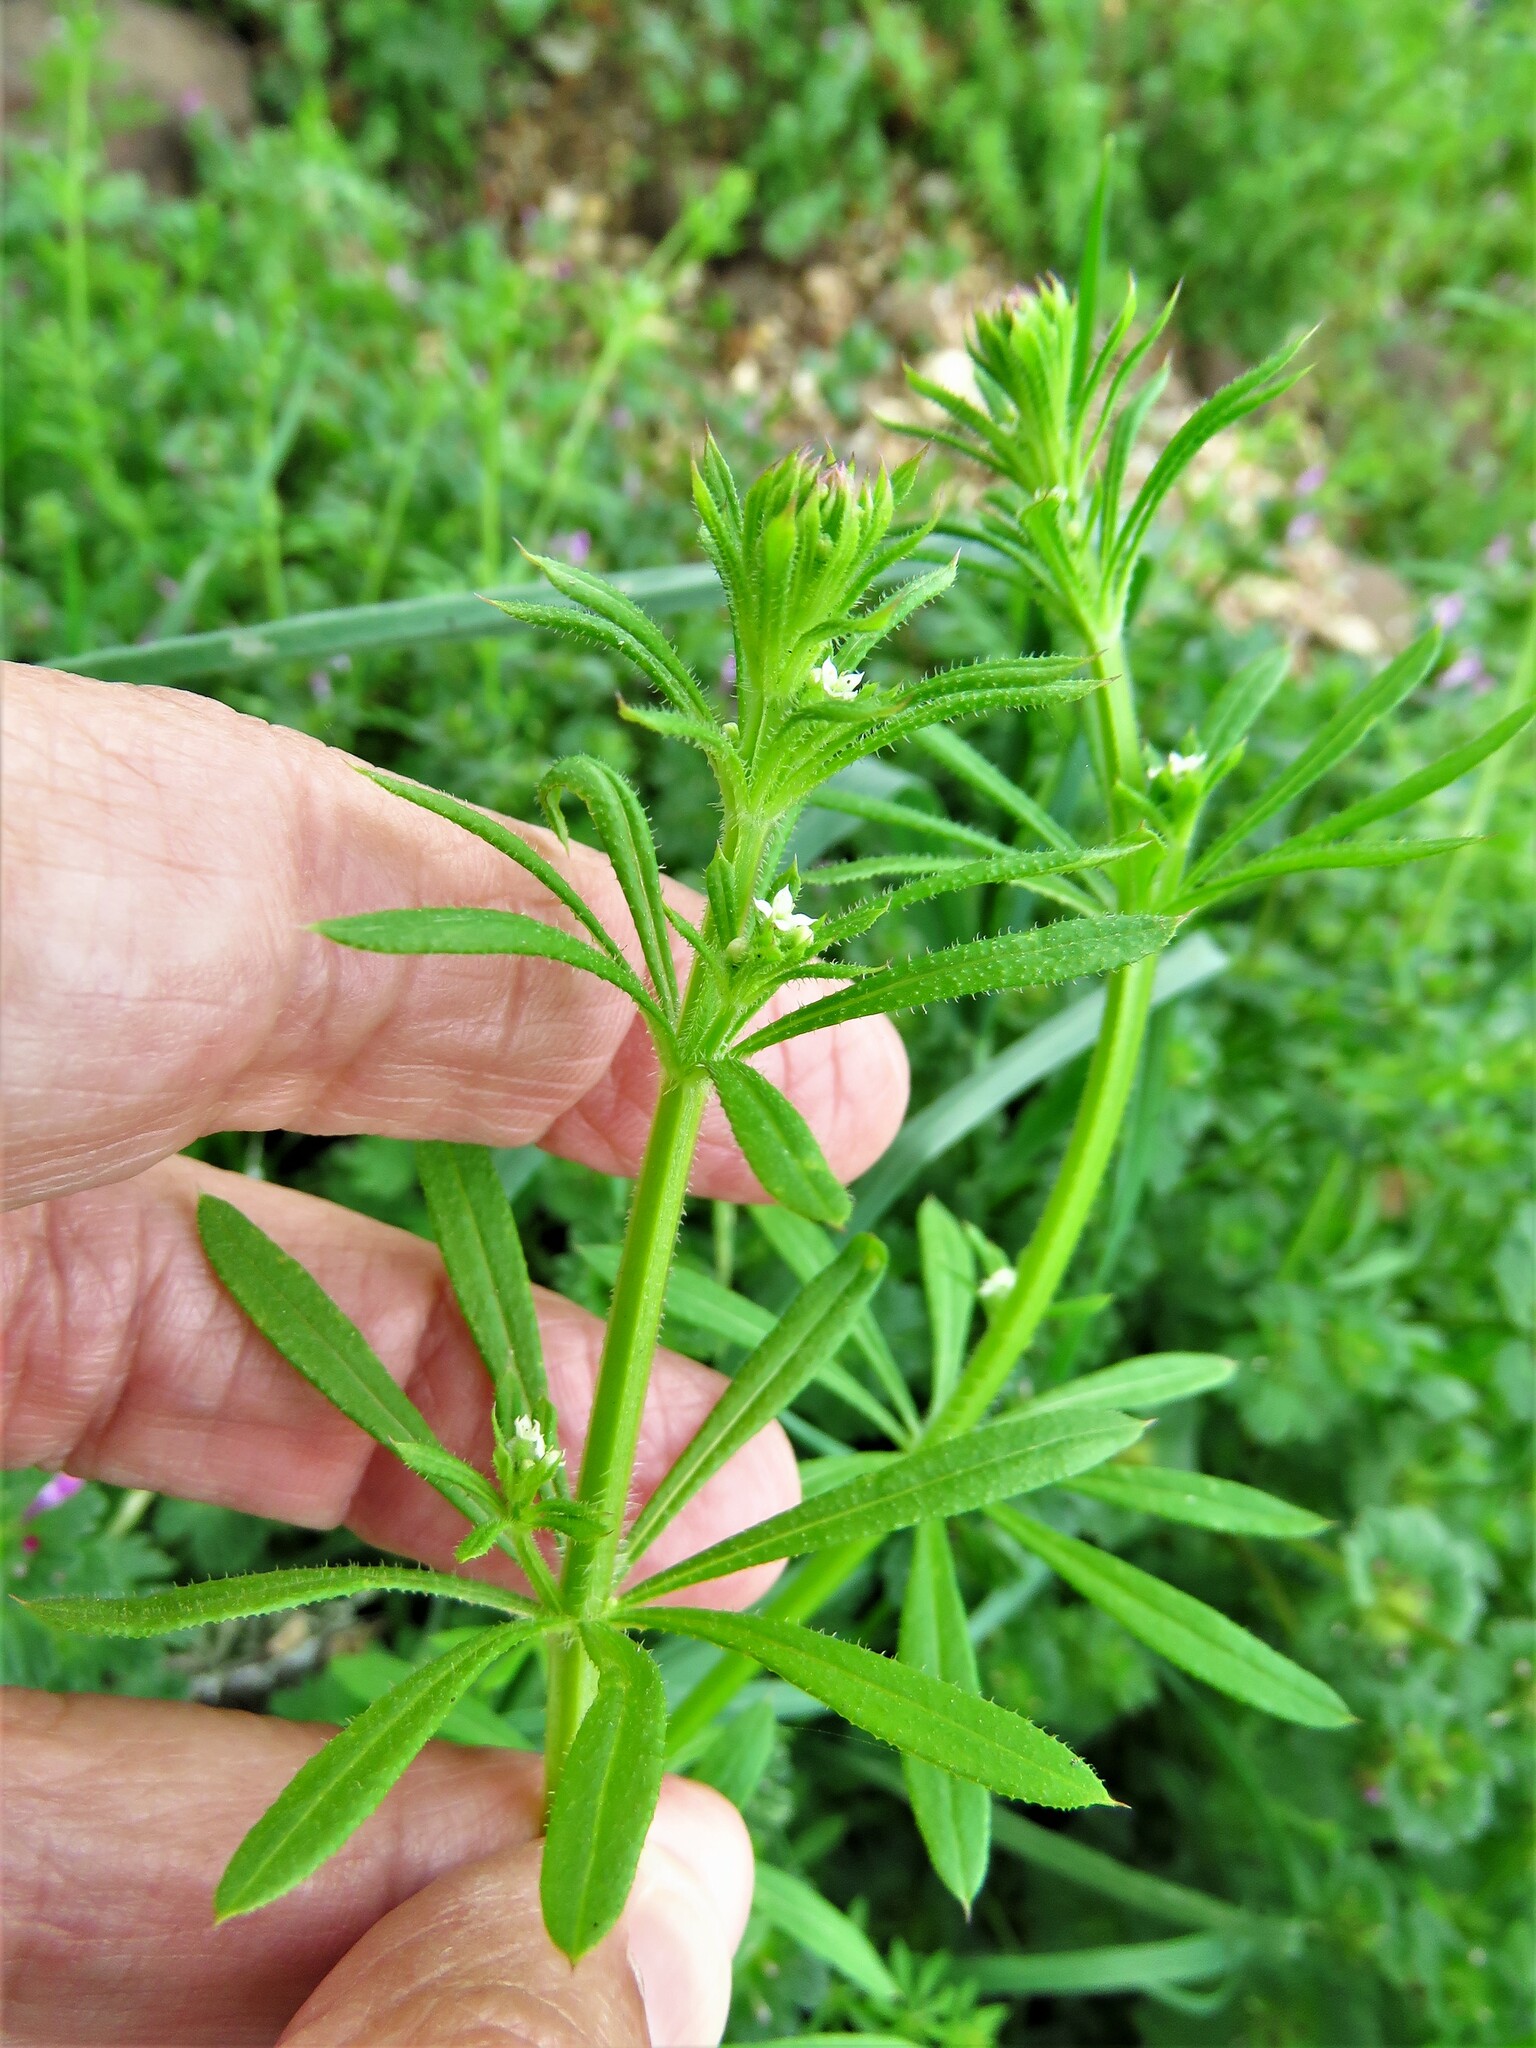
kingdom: Plantae
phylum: Tracheophyta
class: Magnoliopsida
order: Gentianales
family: Rubiaceae
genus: Galium
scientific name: Galium aparine
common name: Cleavers
